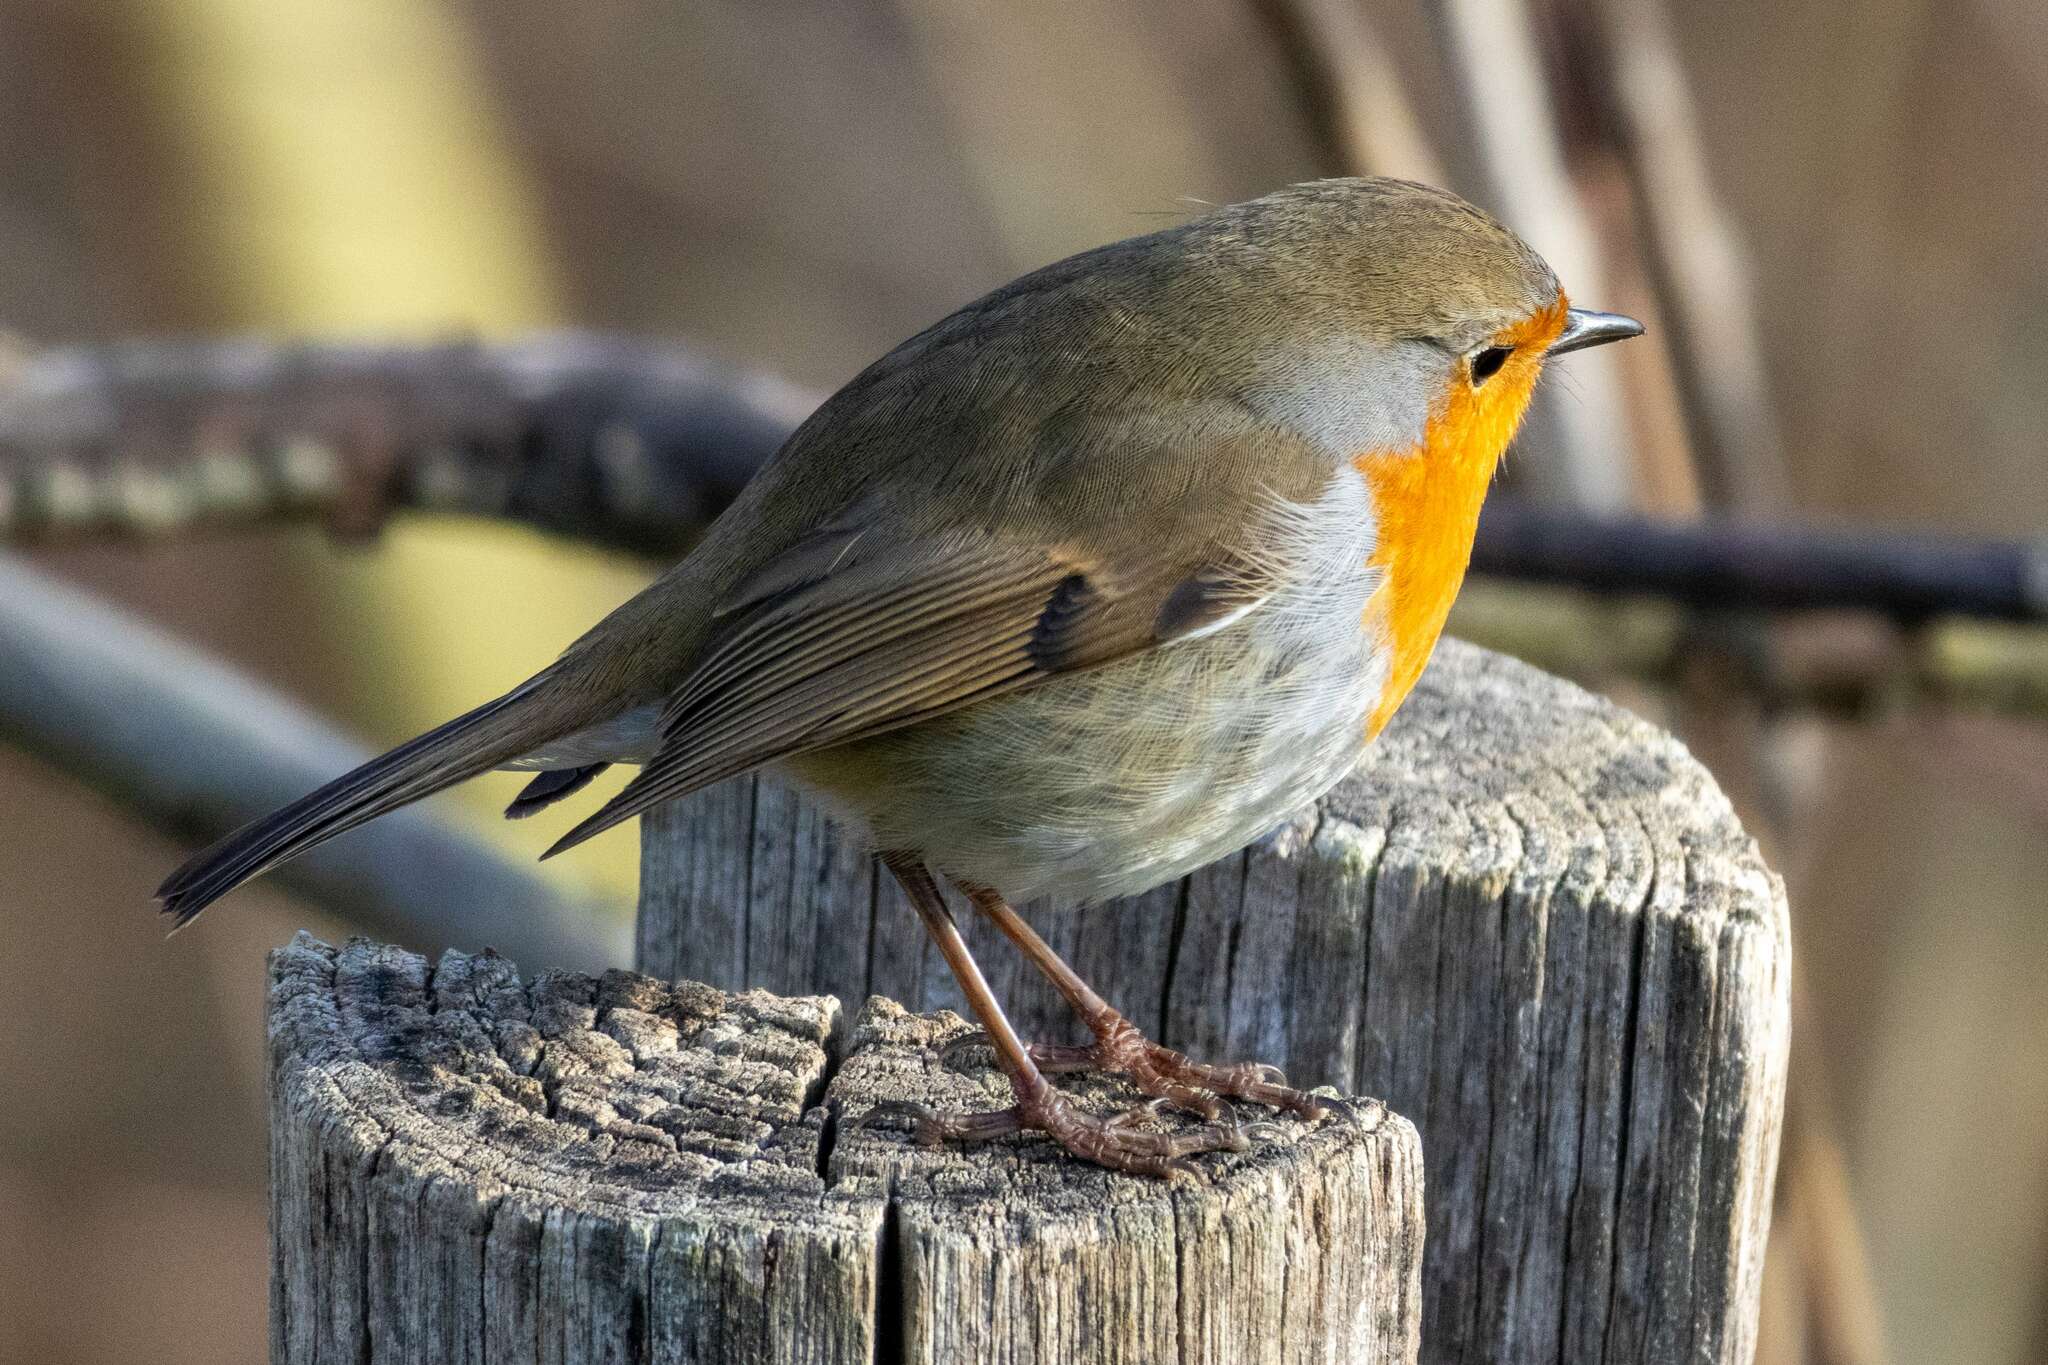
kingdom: Animalia
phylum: Chordata
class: Aves
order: Passeriformes
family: Muscicapidae
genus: Erithacus
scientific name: Erithacus rubecula
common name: European robin
